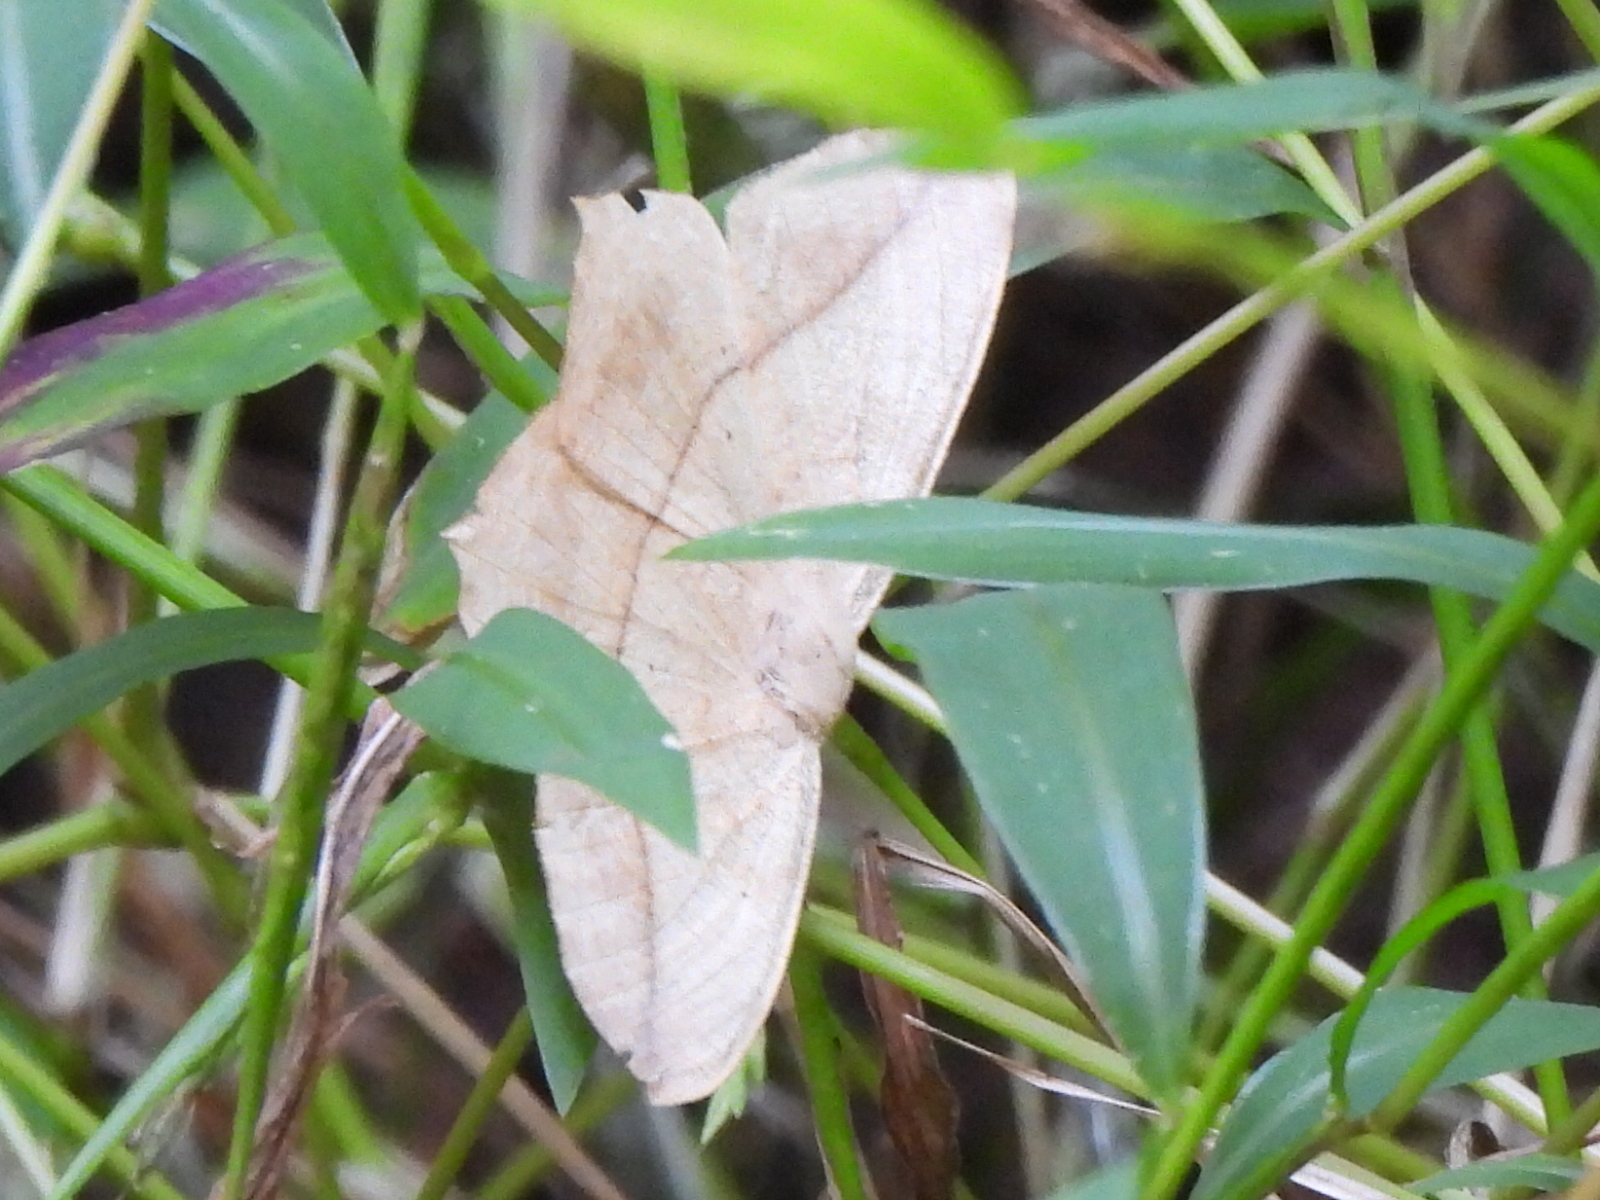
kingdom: Animalia
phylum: Arthropoda
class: Insecta
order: Lepidoptera
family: Geometridae
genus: Prochoerodes
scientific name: Prochoerodes lineola
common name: Large maple spanworm
